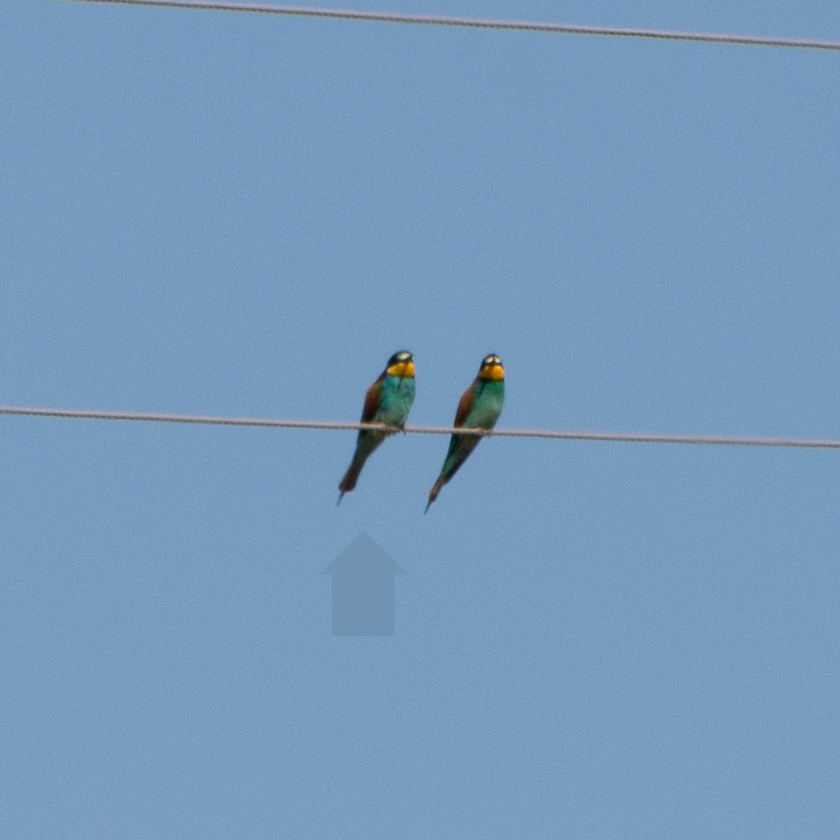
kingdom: Animalia
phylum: Chordata
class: Aves
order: Coraciiformes
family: Meropidae
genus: Merops
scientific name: Merops apiaster
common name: European bee-eater
